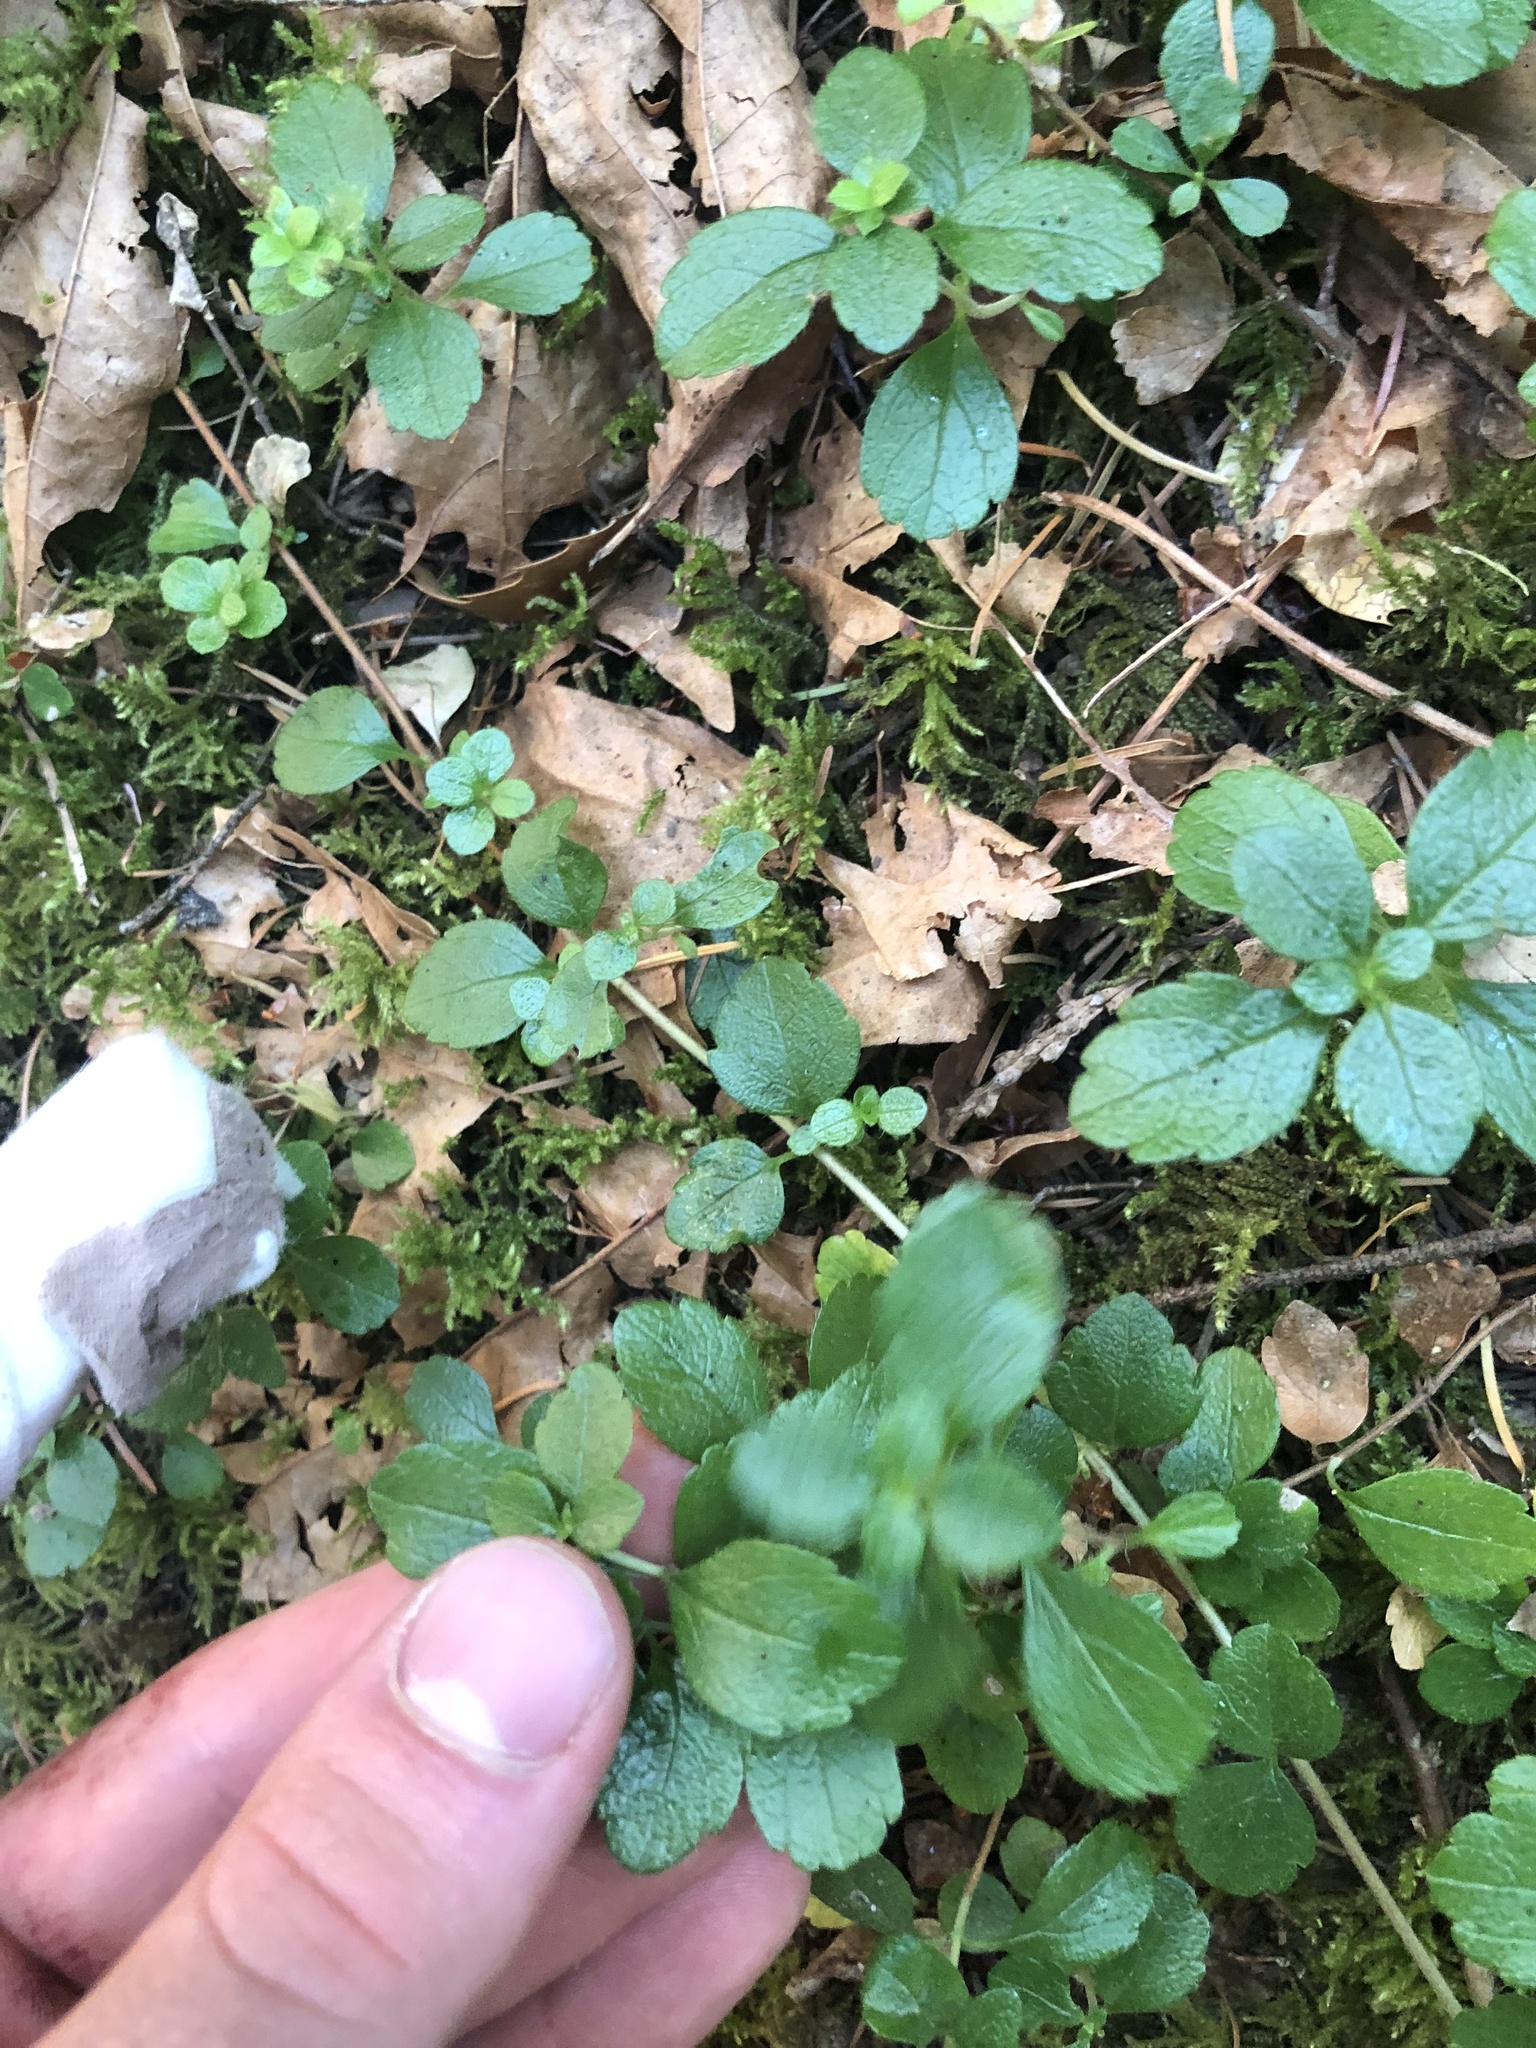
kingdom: Plantae
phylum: Tracheophyta
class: Magnoliopsida
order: Dipsacales
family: Caprifoliaceae
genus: Linnaea
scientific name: Linnaea borealis
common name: Twinflower
